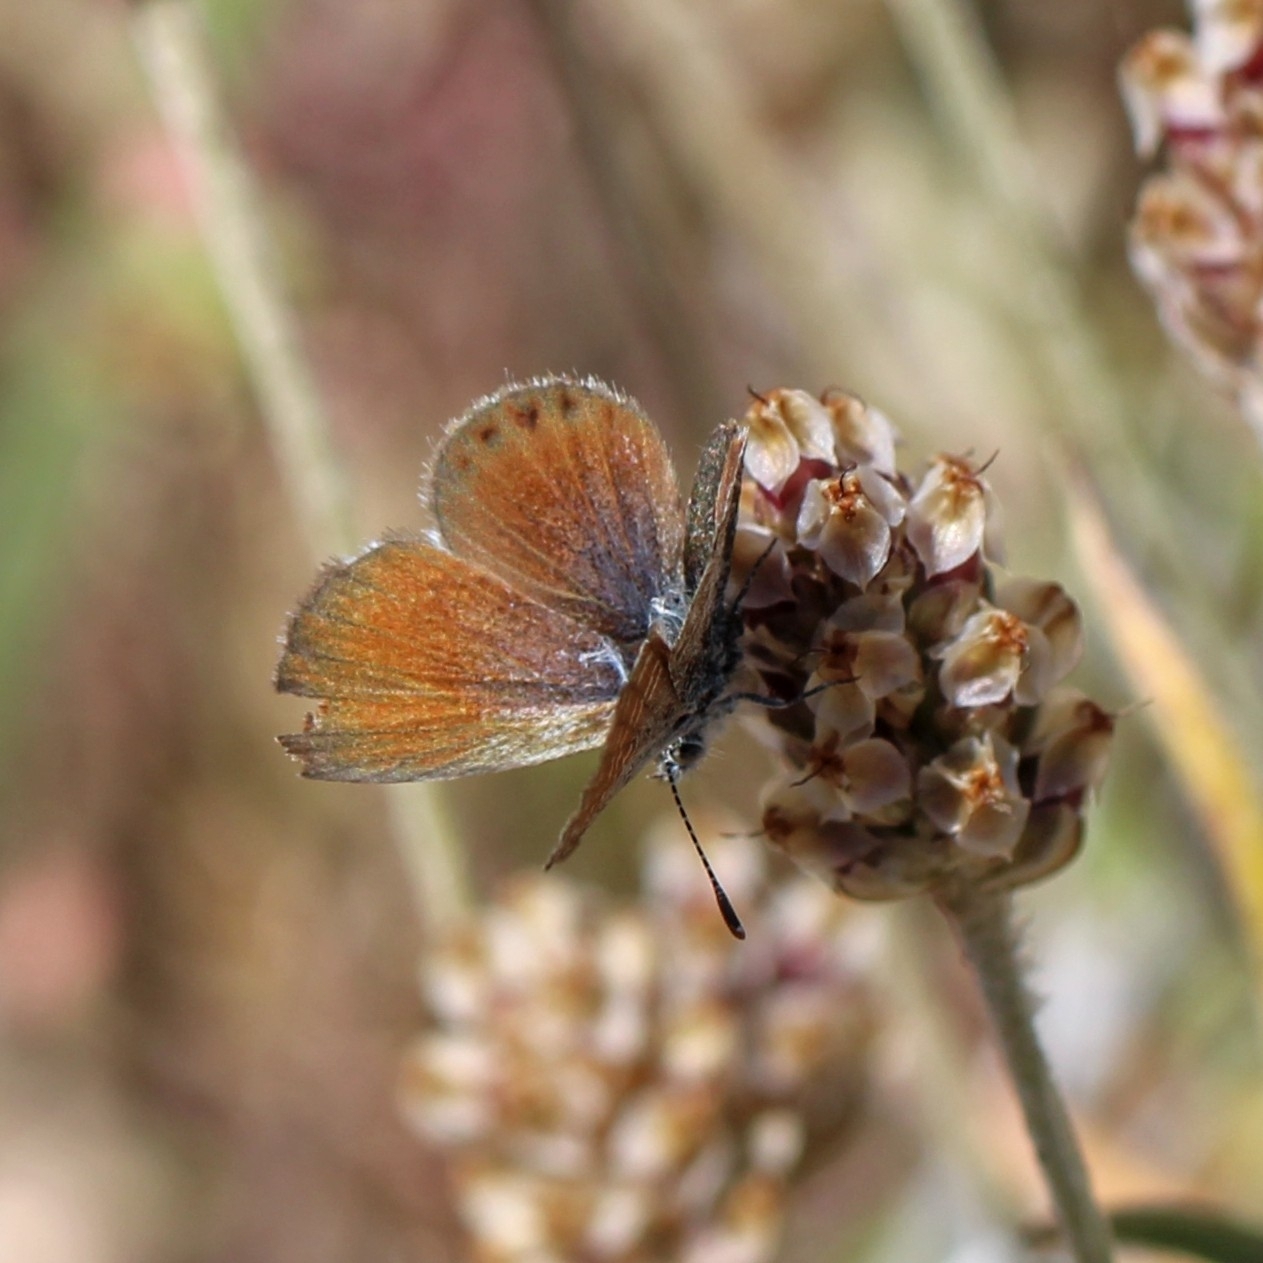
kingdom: Animalia
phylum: Arthropoda
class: Insecta
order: Lepidoptera
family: Lycaenidae
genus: Brephidium
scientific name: Brephidium exilis
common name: Pygmy blue
